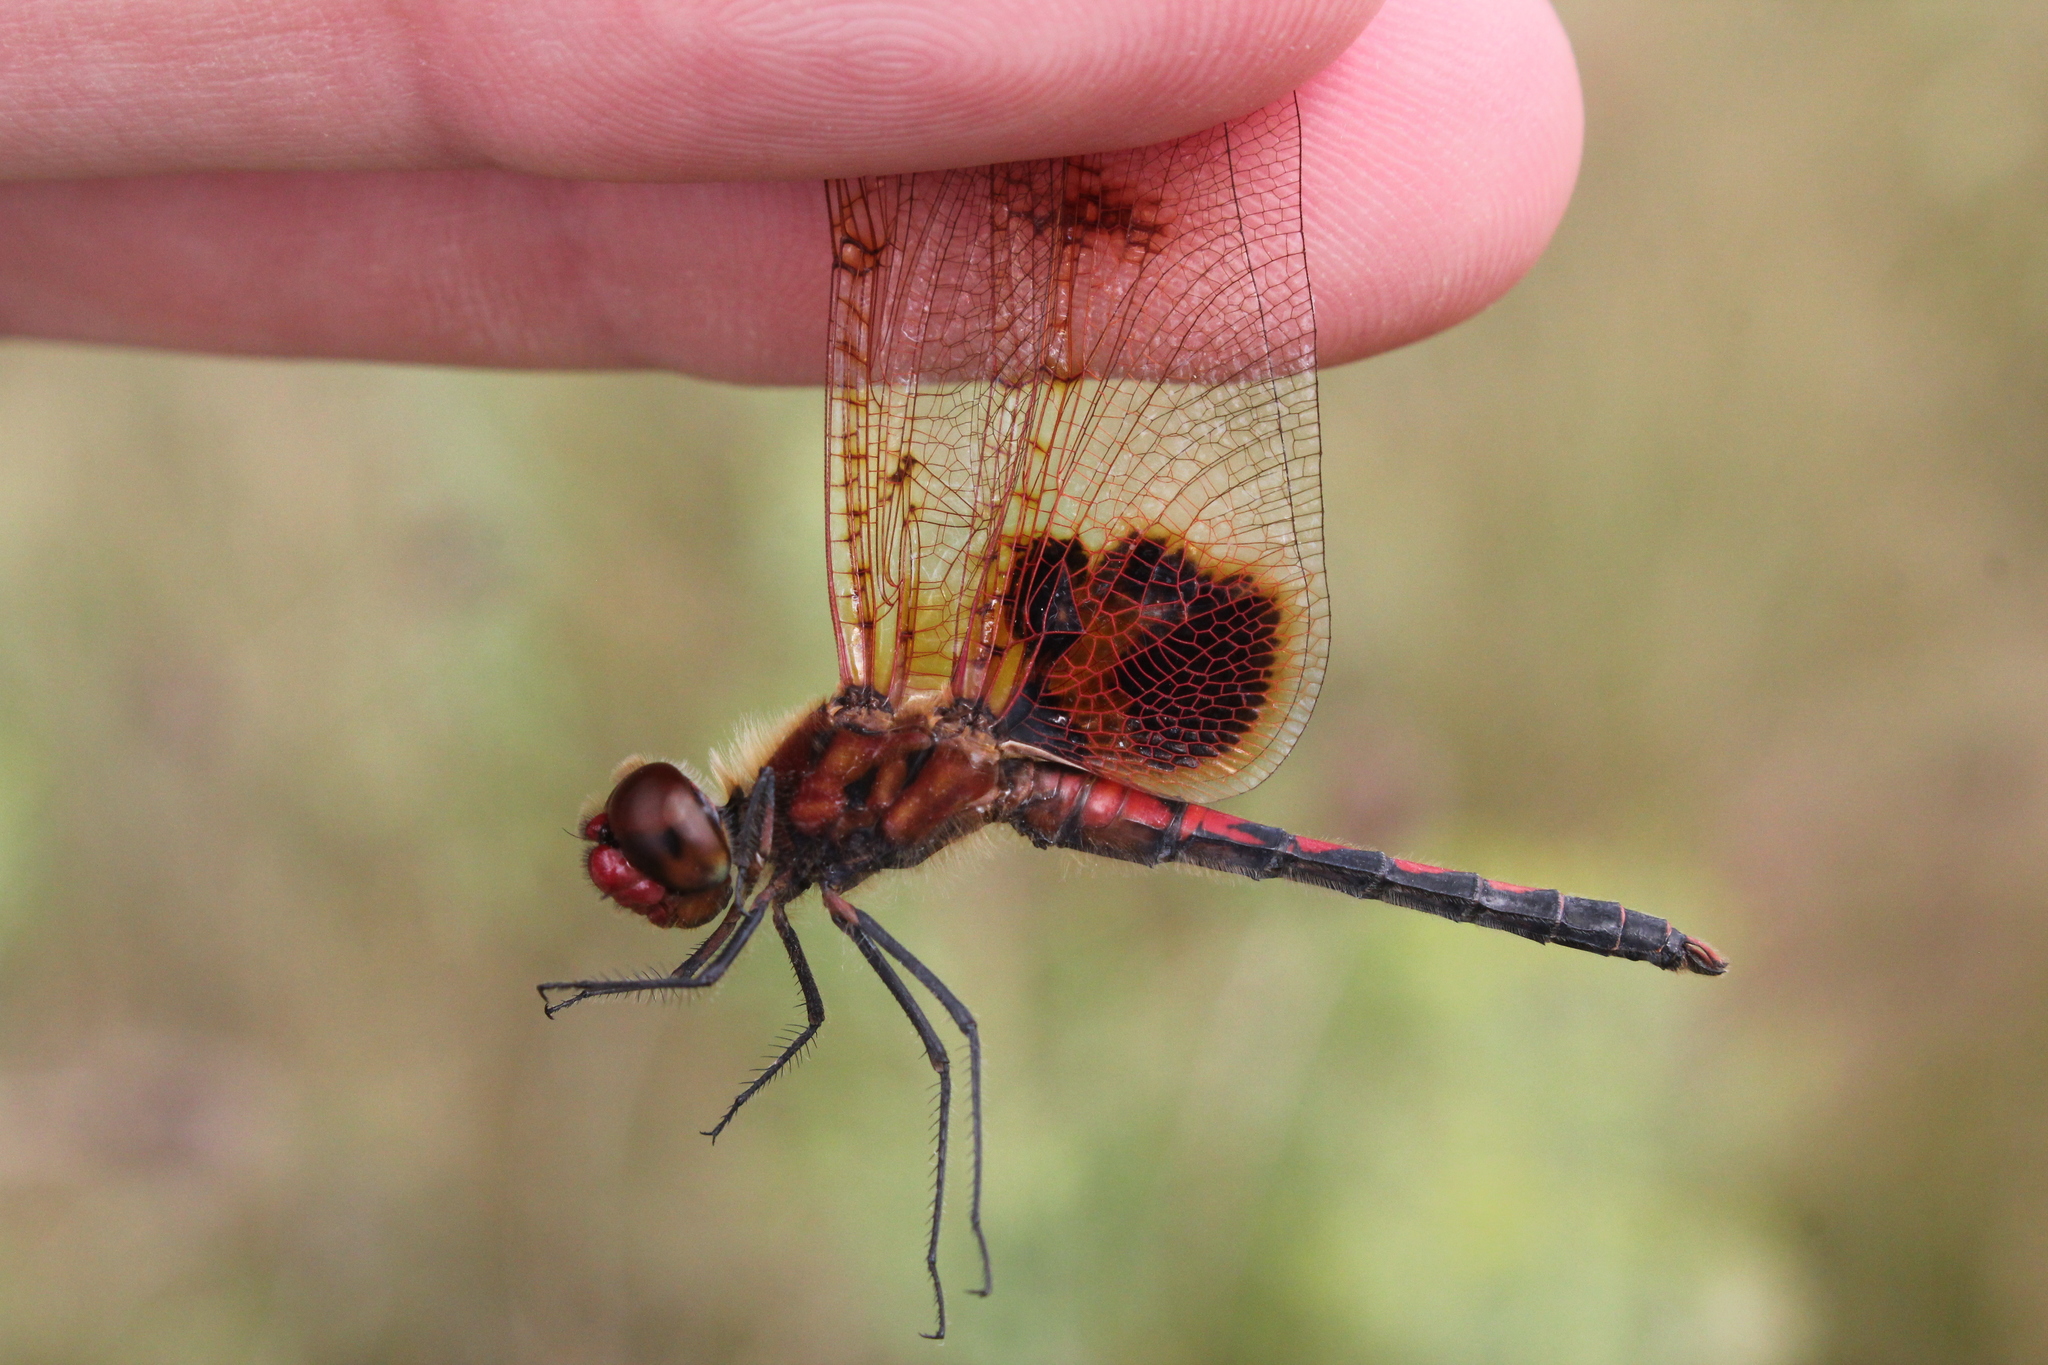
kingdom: Animalia
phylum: Arthropoda
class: Insecta
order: Odonata
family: Libellulidae
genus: Celithemis
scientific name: Celithemis elisa
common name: Calico pennant
